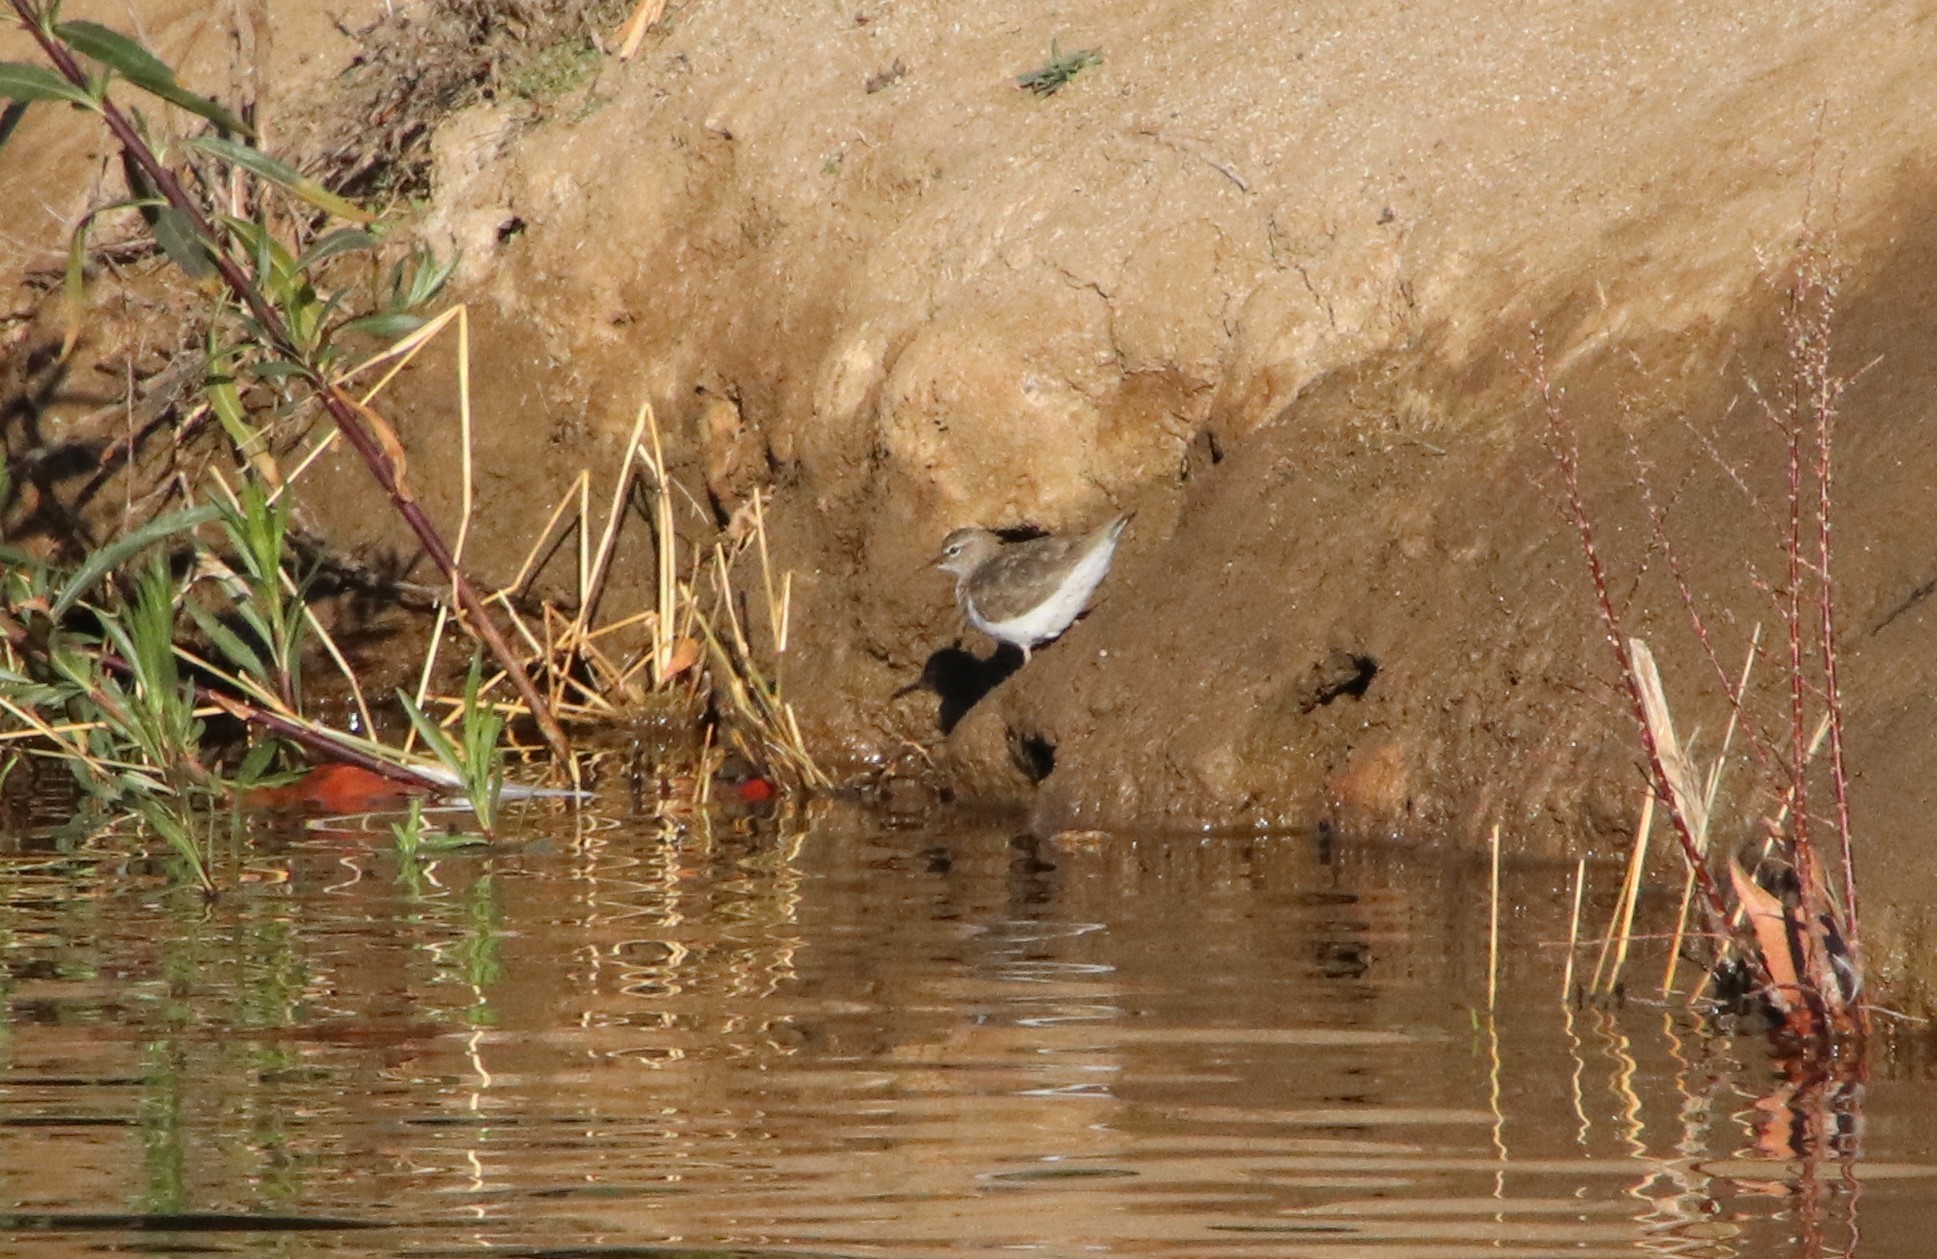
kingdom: Animalia
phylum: Chordata
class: Aves
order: Charadriiformes
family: Scolopacidae
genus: Actitis
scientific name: Actitis macularius
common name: Spotted sandpiper
